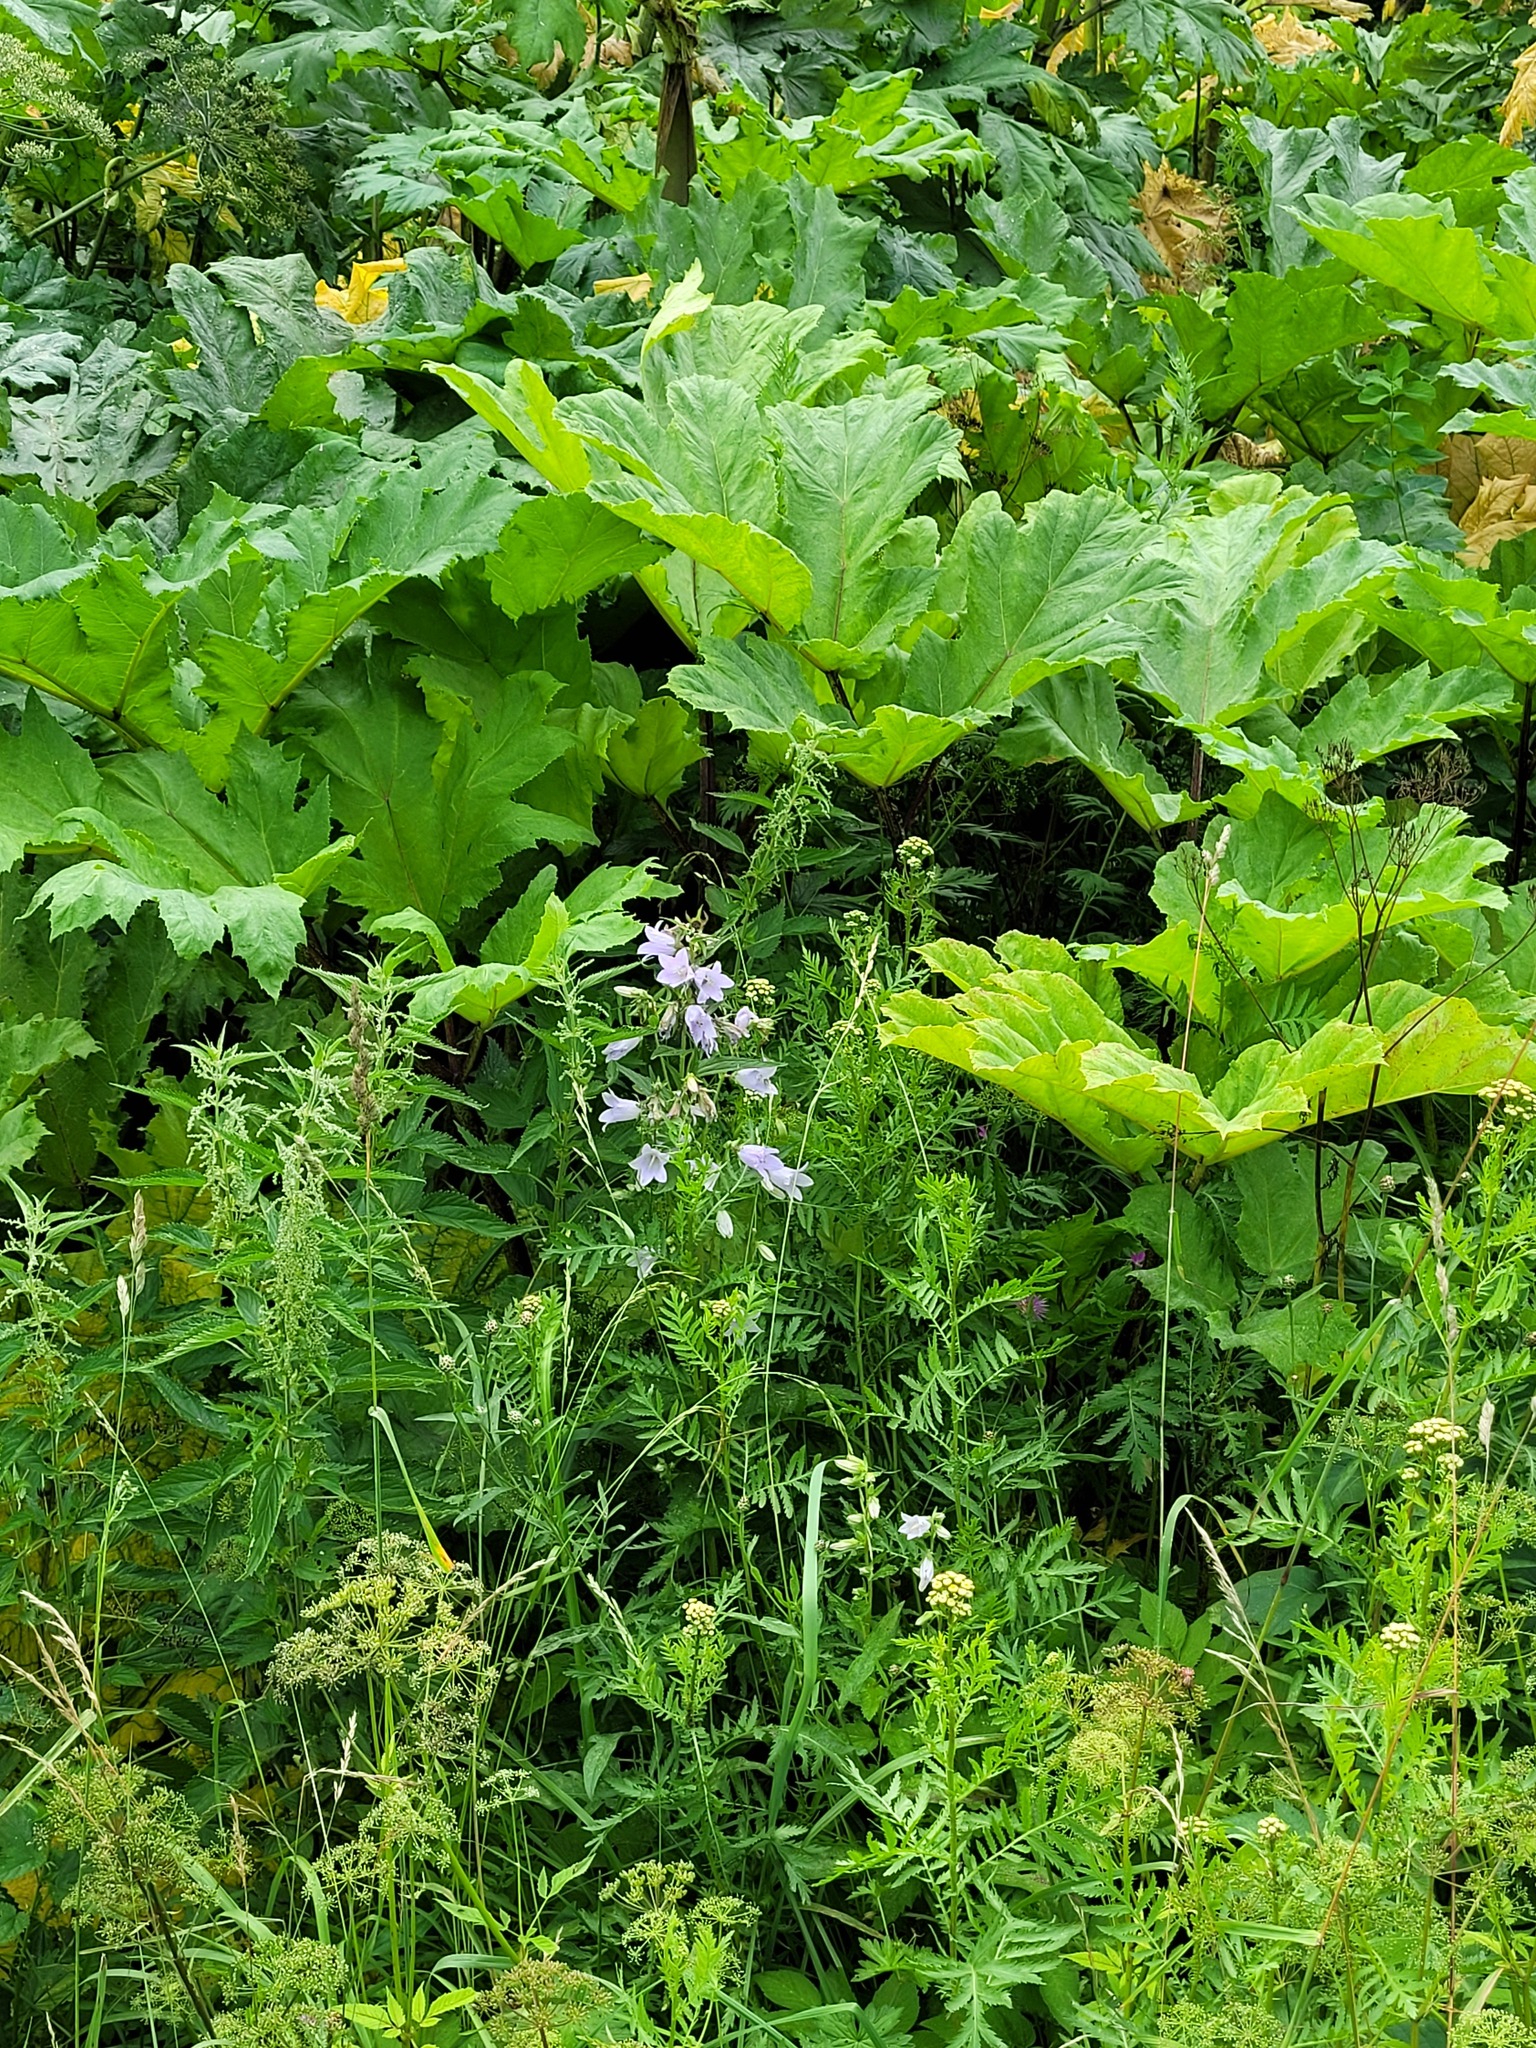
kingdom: Plantae
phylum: Tracheophyta
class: Magnoliopsida
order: Asterales
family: Campanulaceae
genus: Campanula
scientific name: Campanula trachelium
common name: Nettle-leaved bellflower
